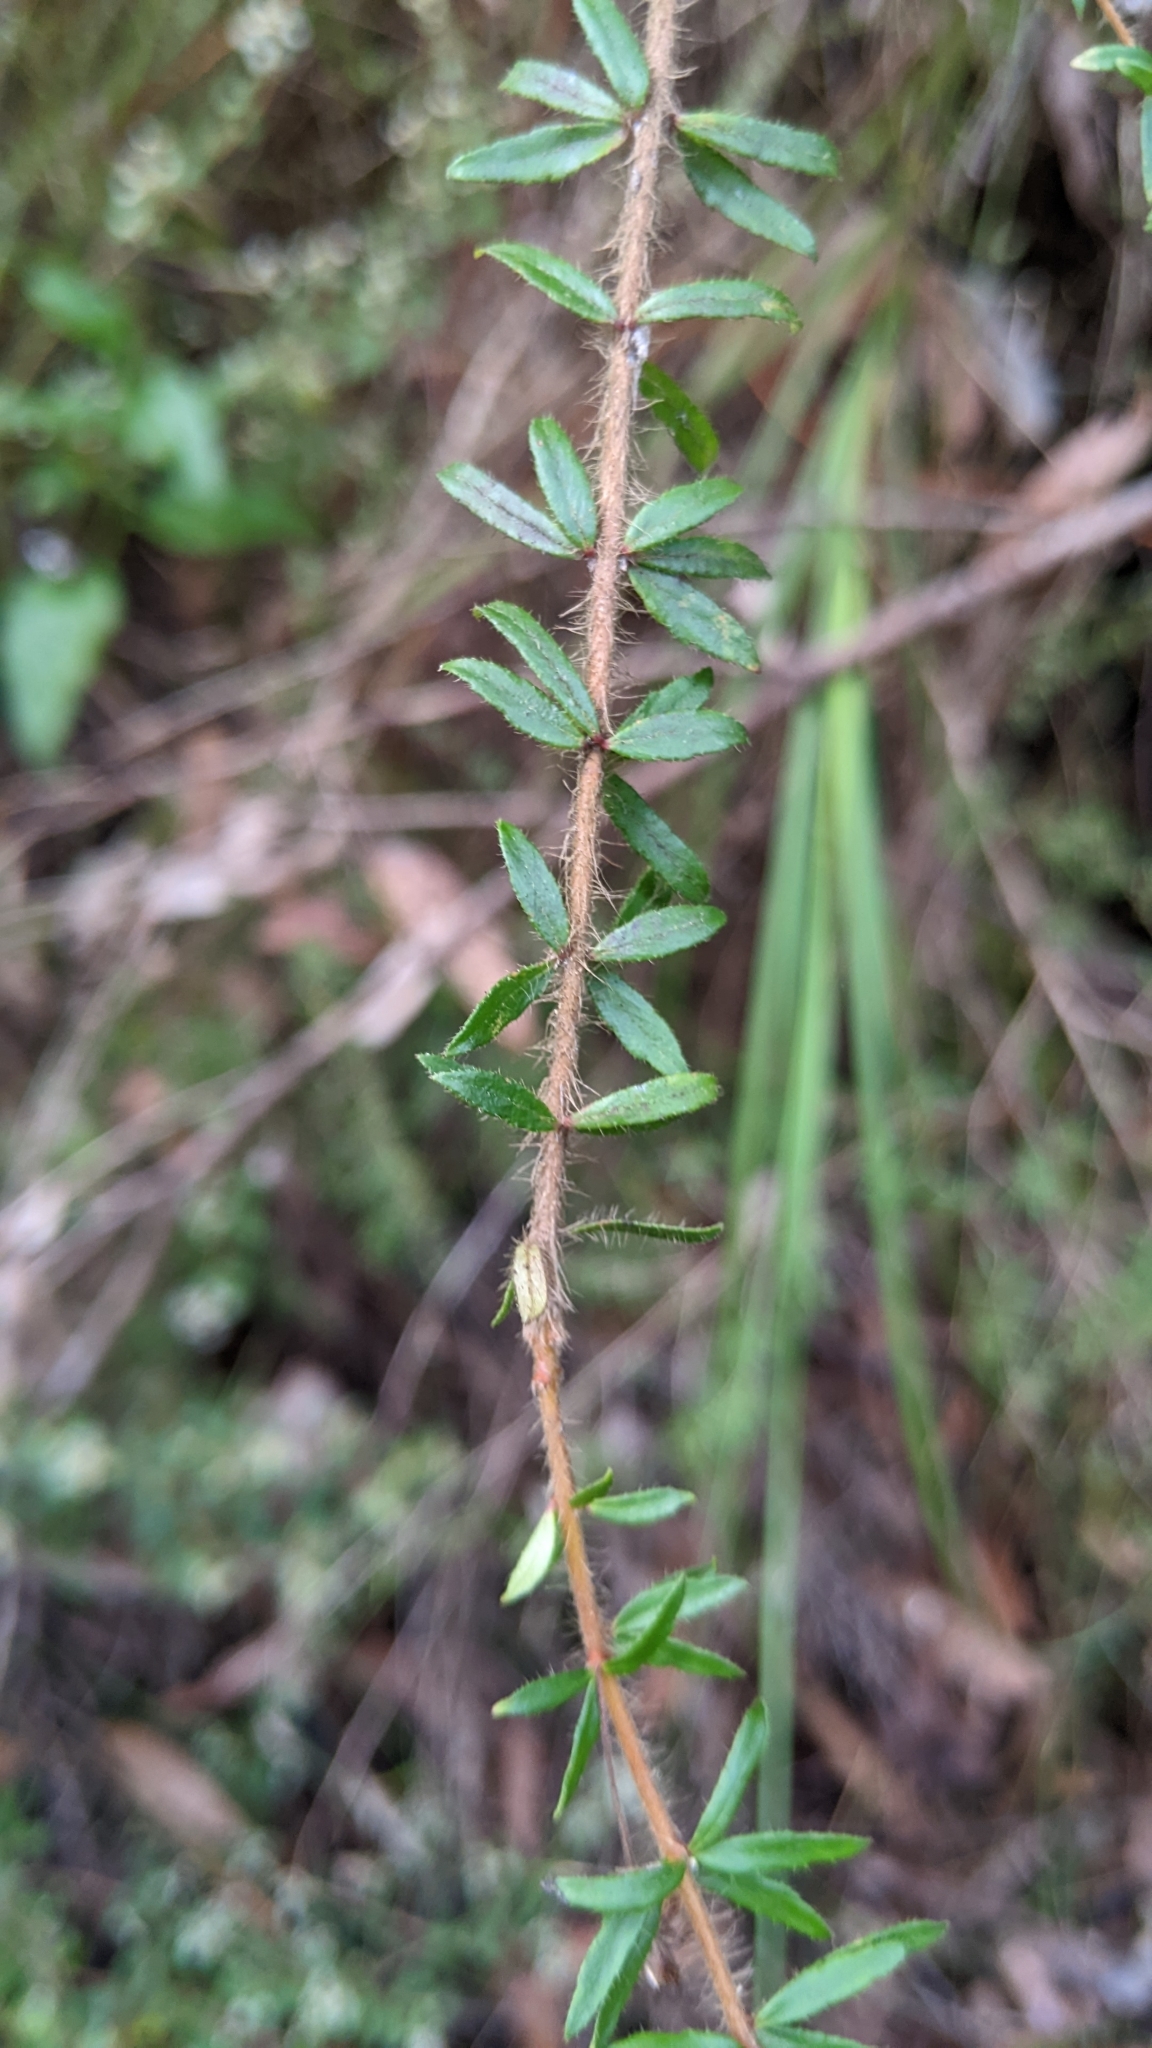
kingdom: Plantae
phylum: Tracheophyta
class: Magnoliopsida
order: Oxalidales
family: Cunoniaceae
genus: Bauera
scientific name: Bauera rubioides
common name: River-rose
